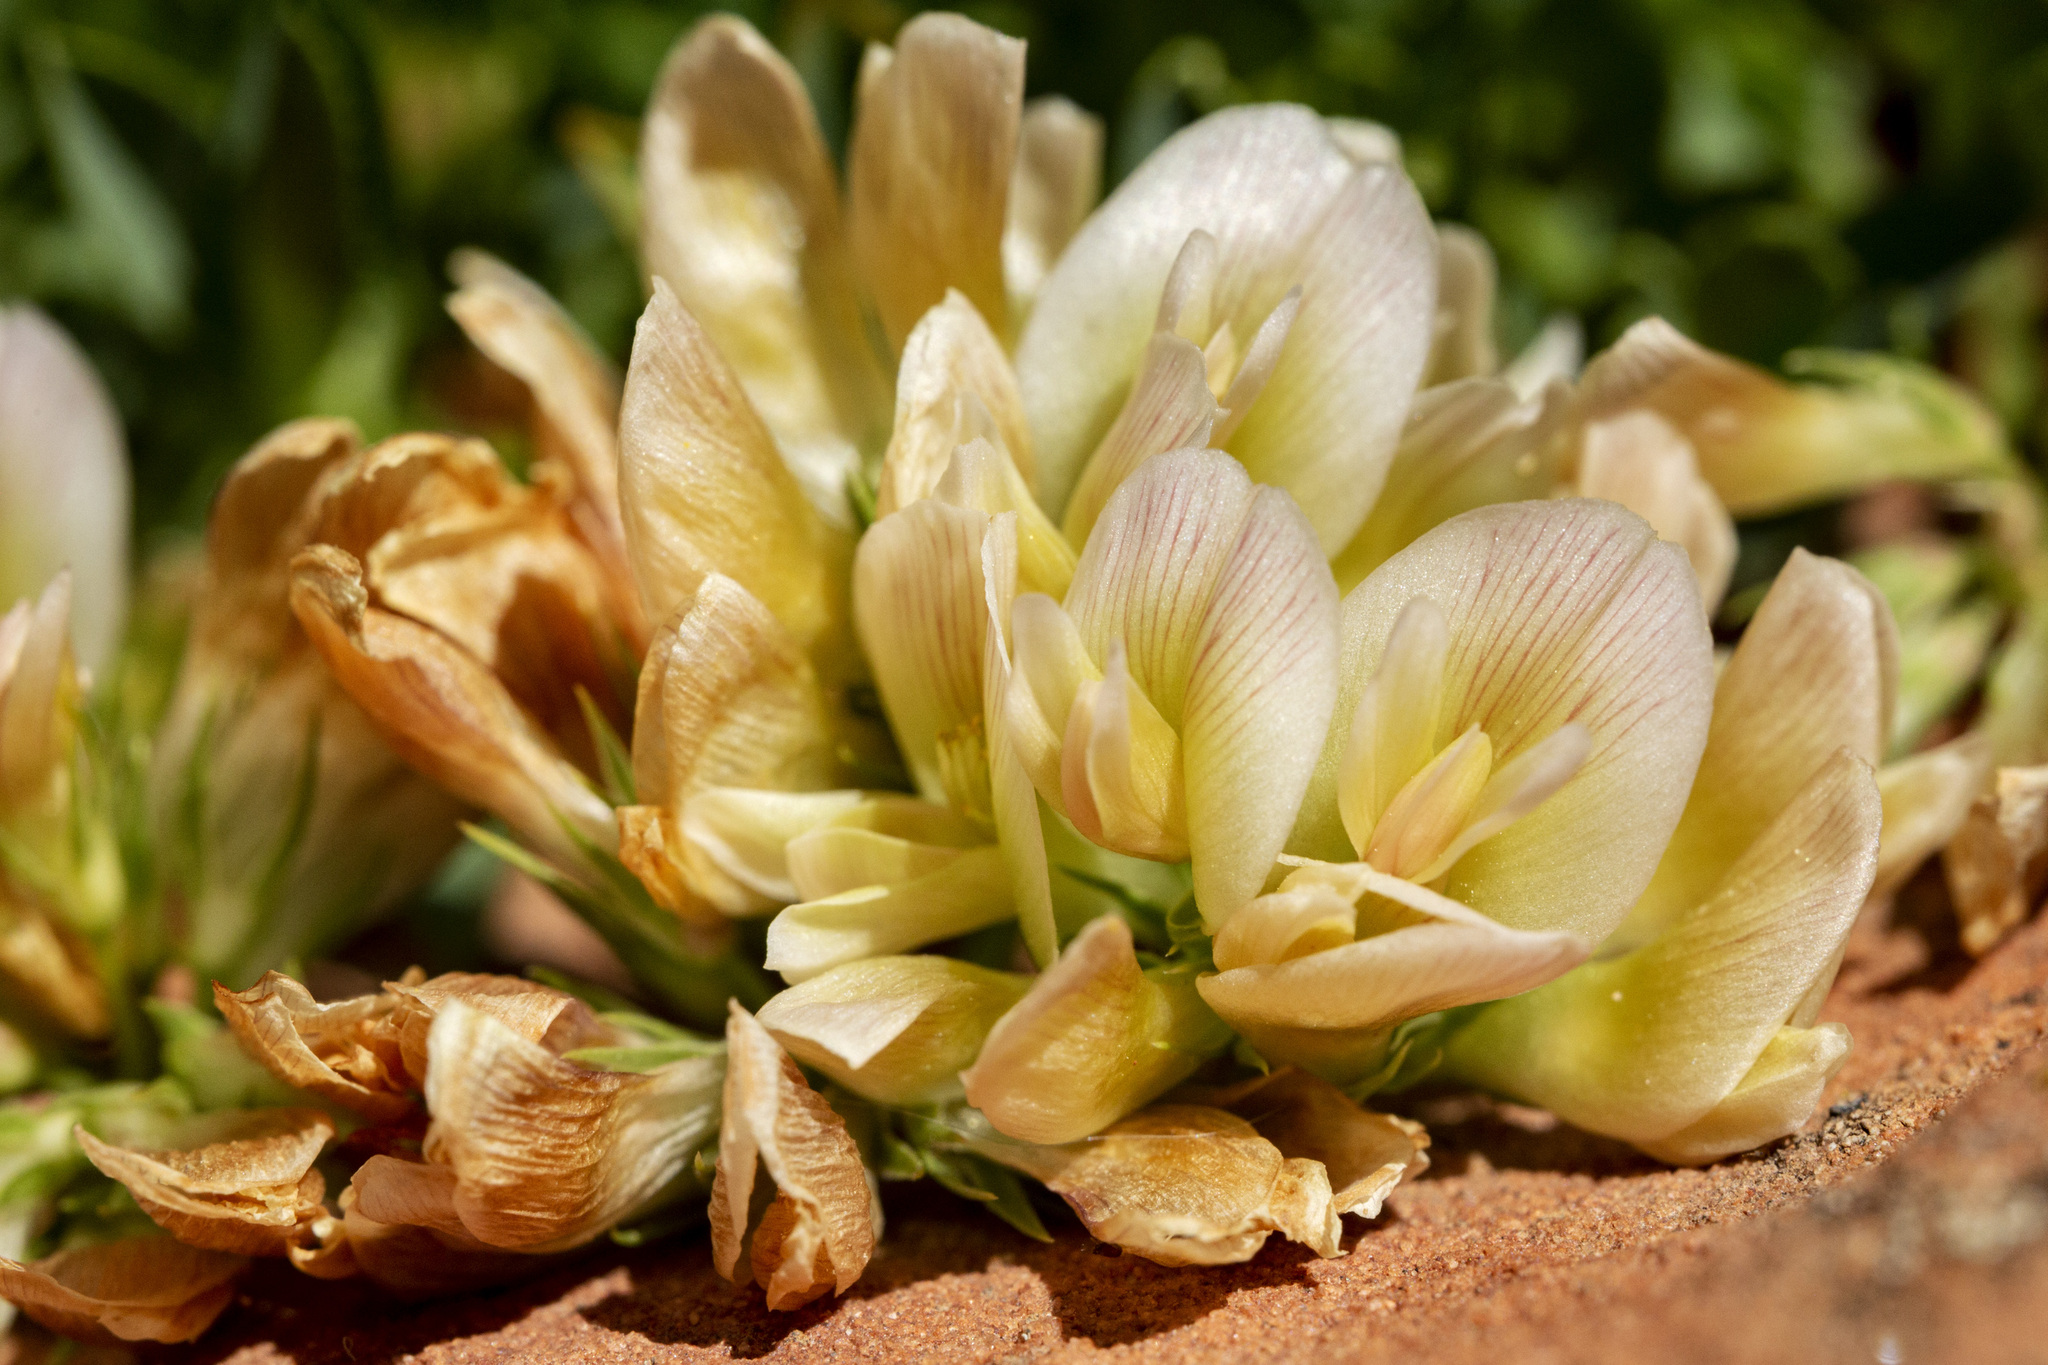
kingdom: Plantae
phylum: Tracheophyta
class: Magnoliopsida
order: Fabales
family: Fabaceae
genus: Trifolium
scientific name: Trifolium barnebyi
